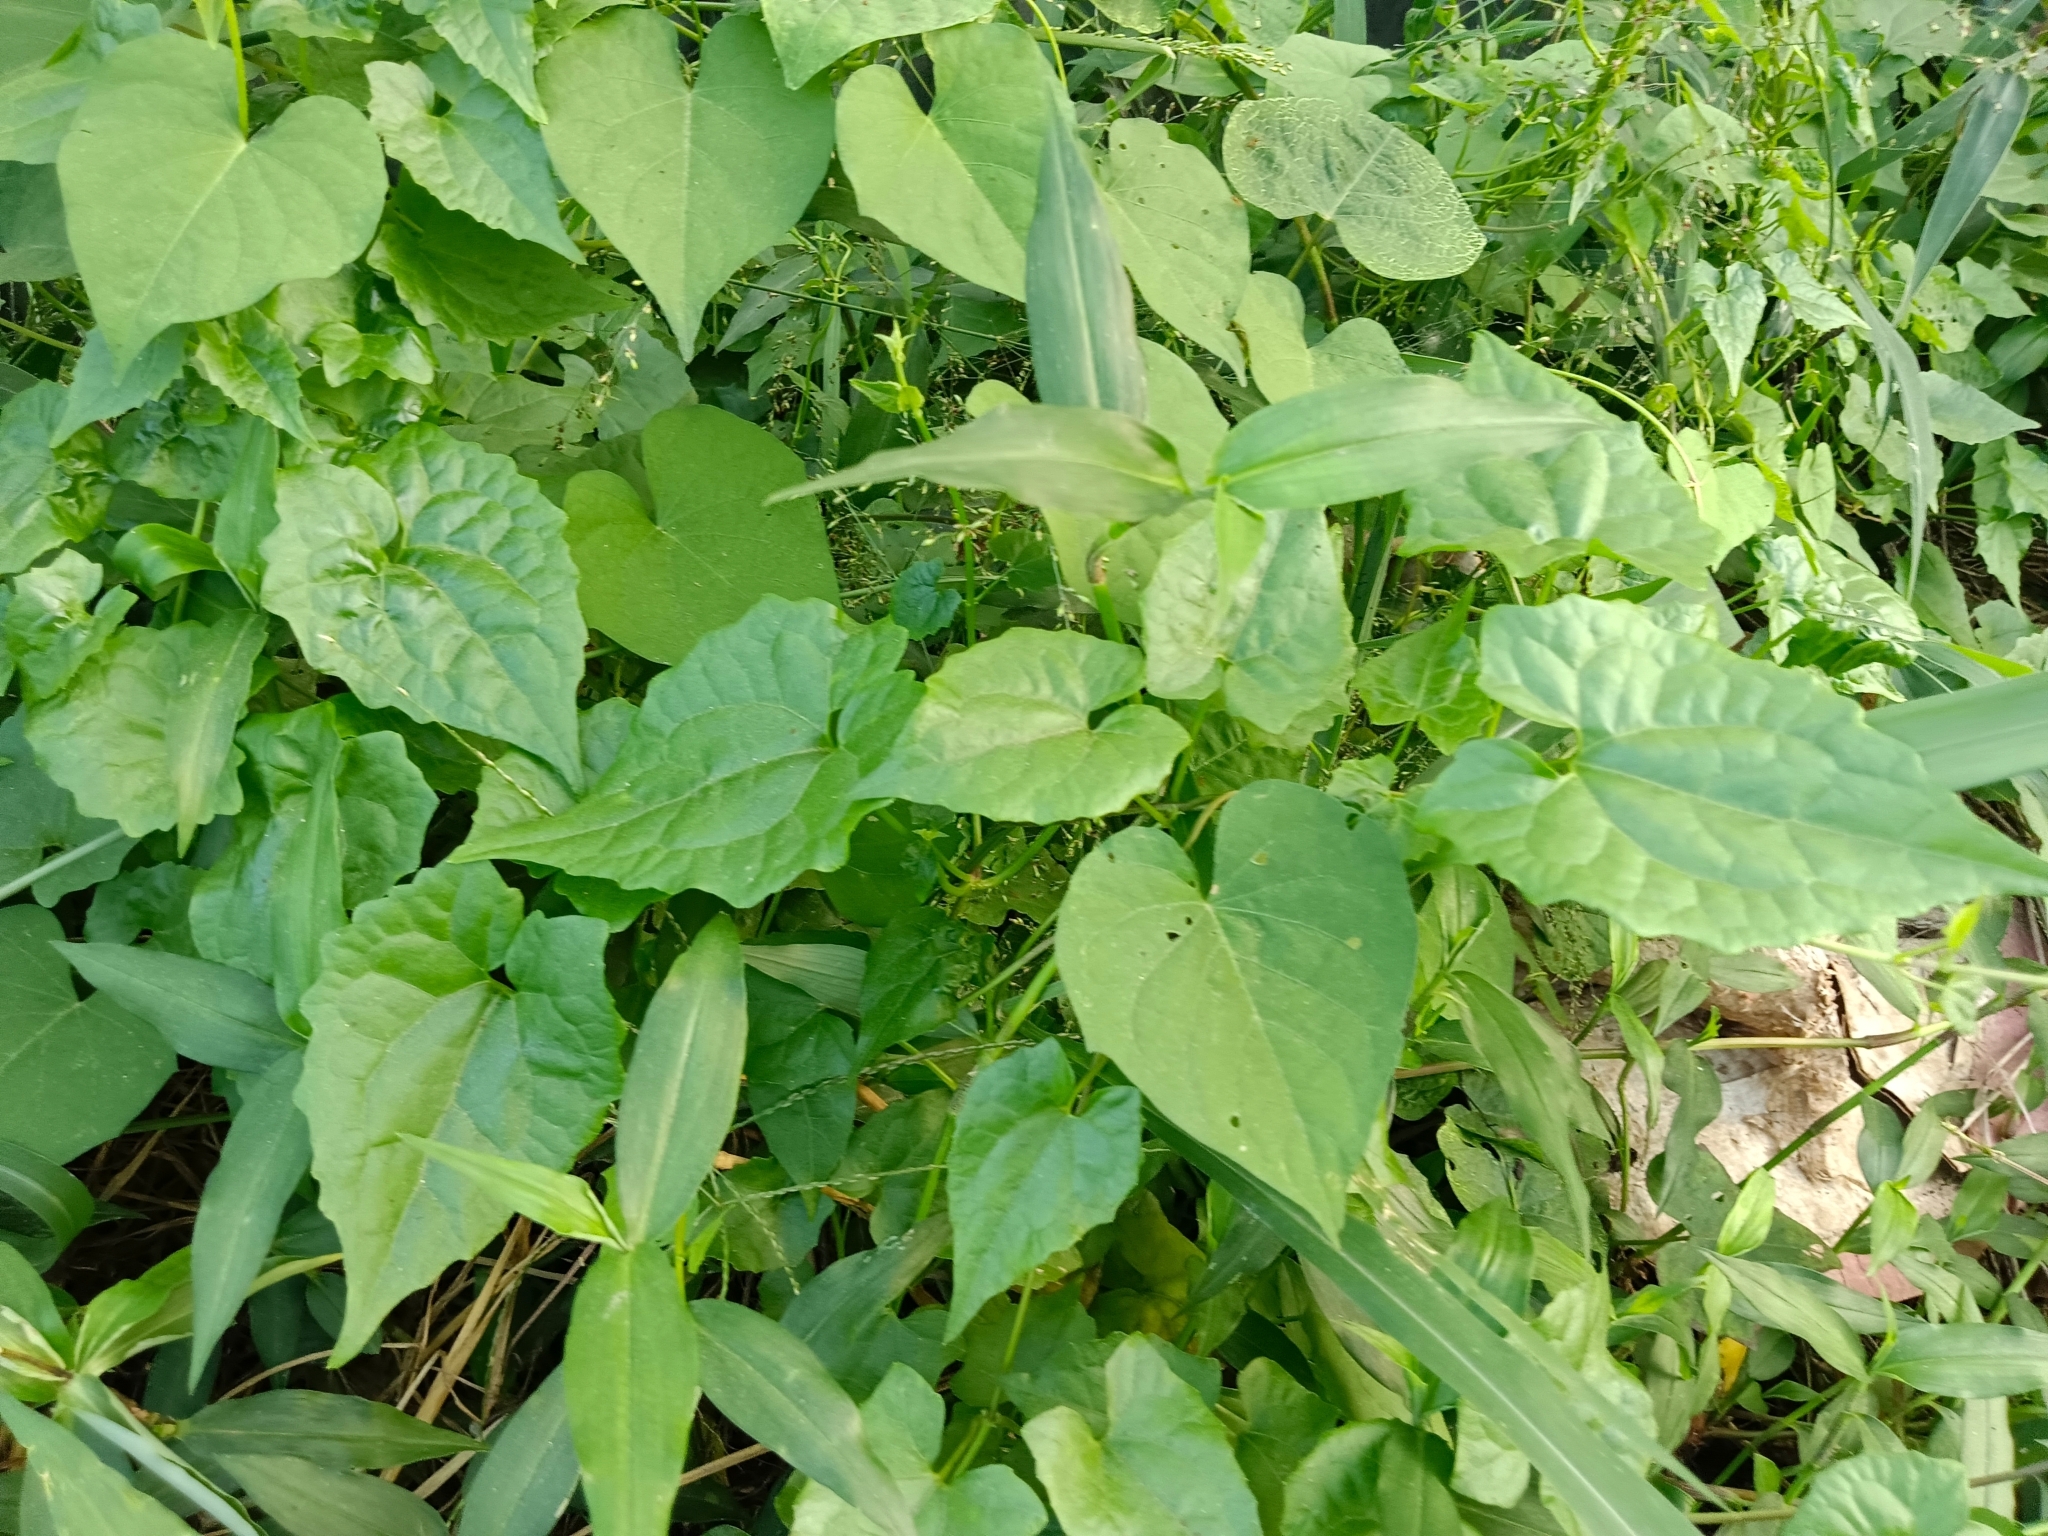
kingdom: Plantae
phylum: Tracheophyta
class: Magnoliopsida
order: Asterales
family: Asteraceae
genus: Mikania
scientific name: Mikania micrantha
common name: Mile-a-minute
